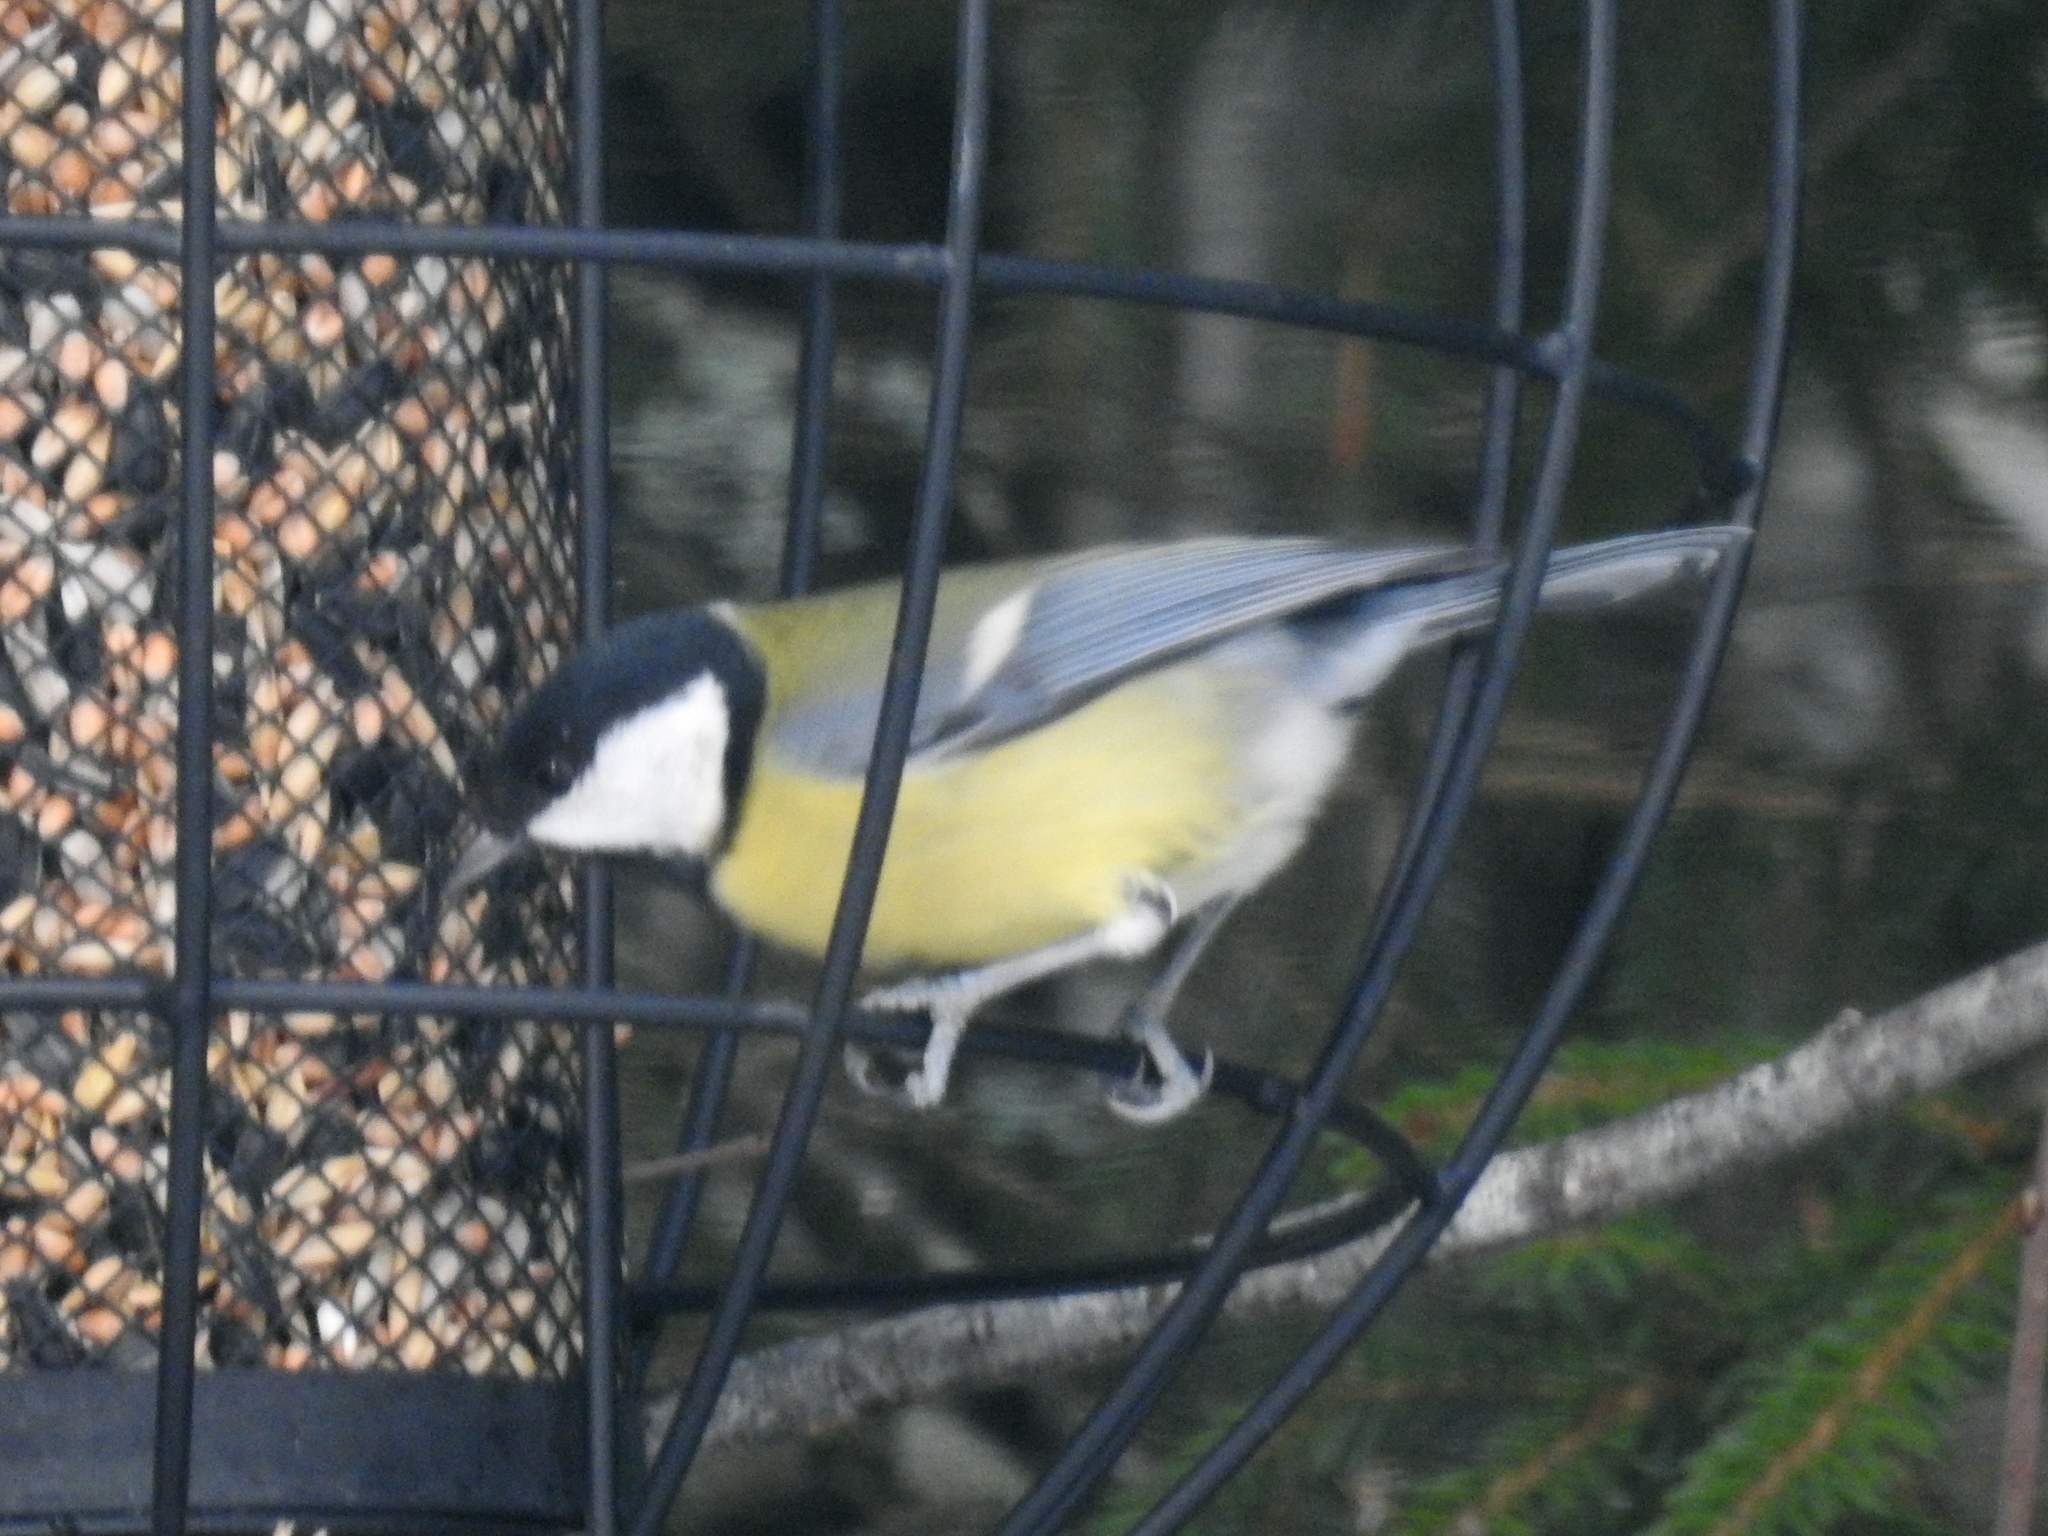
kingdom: Animalia
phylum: Chordata
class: Aves
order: Passeriformes
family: Paridae
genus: Parus
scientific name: Parus major
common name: Great tit
